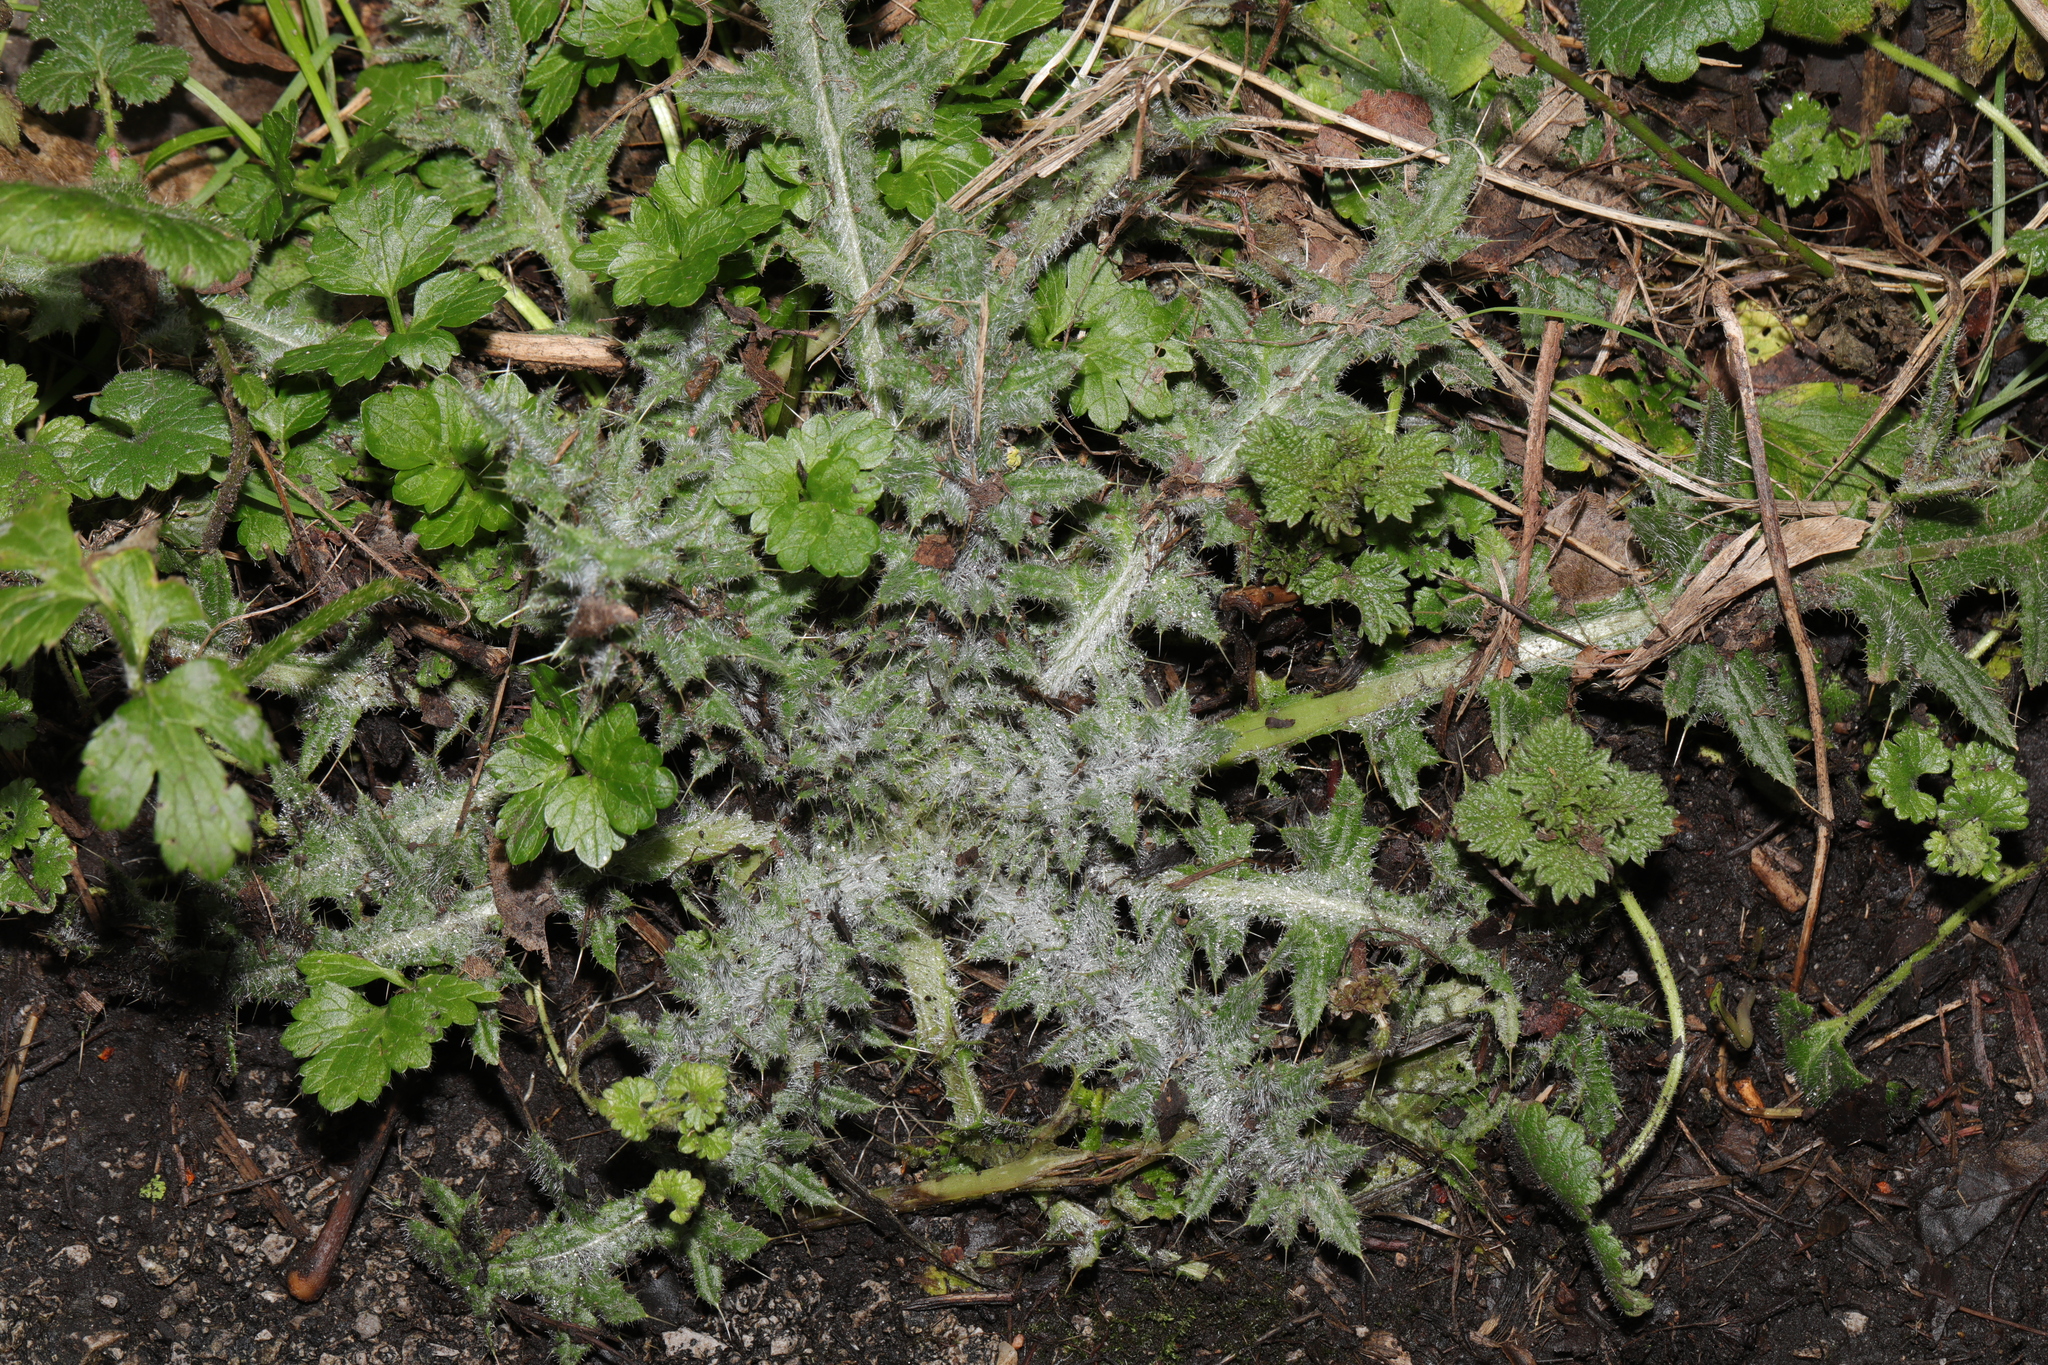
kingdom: Plantae
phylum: Tracheophyta
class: Magnoliopsida
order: Asterales
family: Asteraceae
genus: Cirsium
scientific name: Cirsium vulgare
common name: Bull thistle
